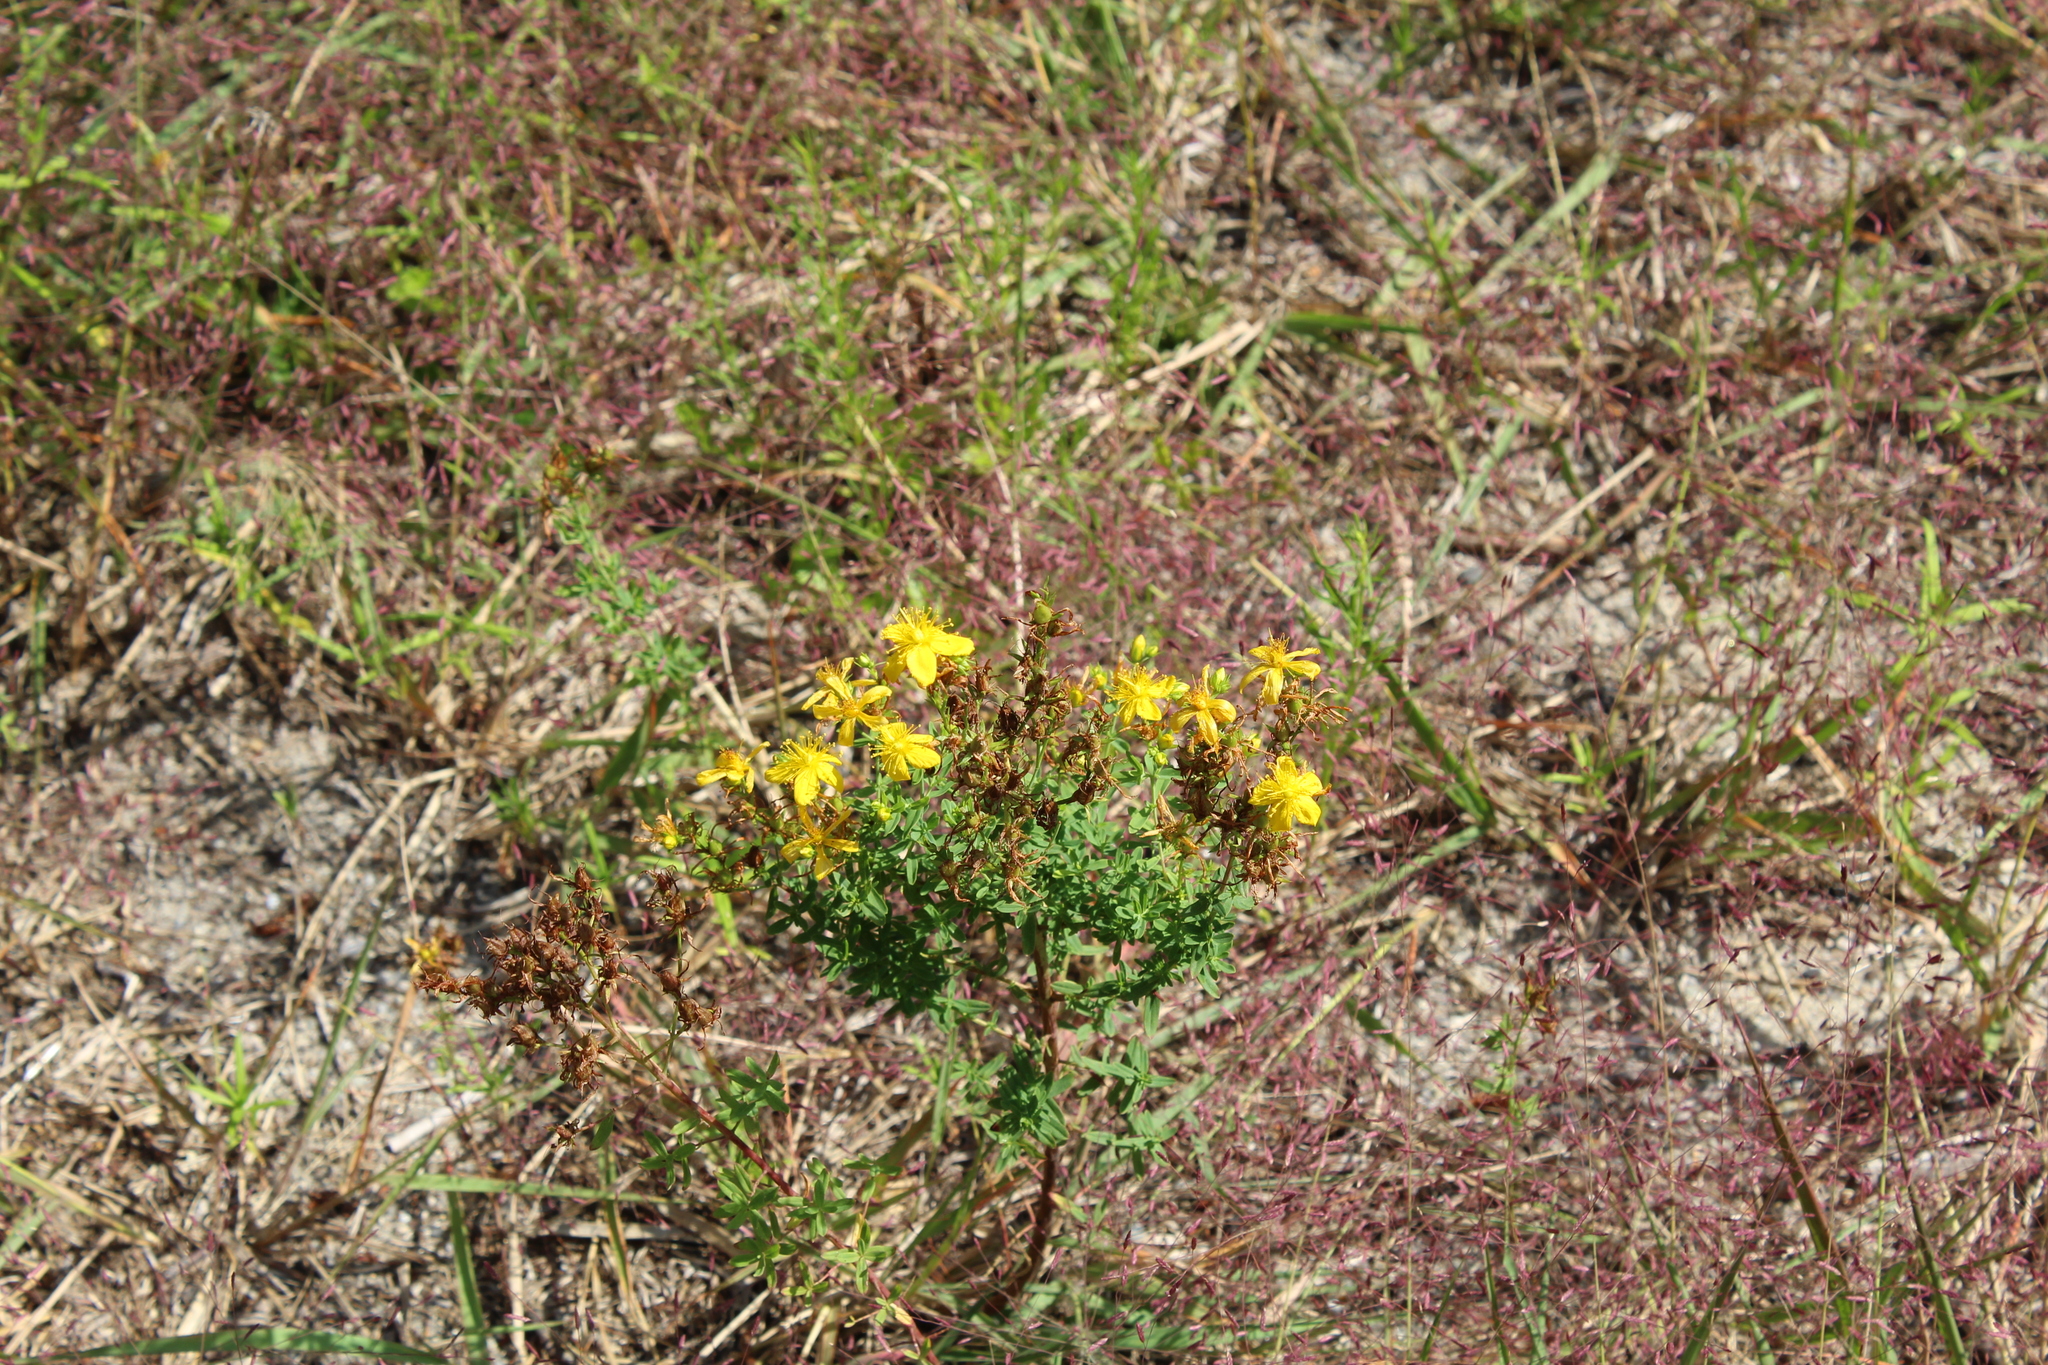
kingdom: Plantae
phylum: Tracheophyta
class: Magnoliopsida
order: Malpighiales
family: Hypericaceae
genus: Hypericum
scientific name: Hypericum perforatum
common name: Common st. johnswort
